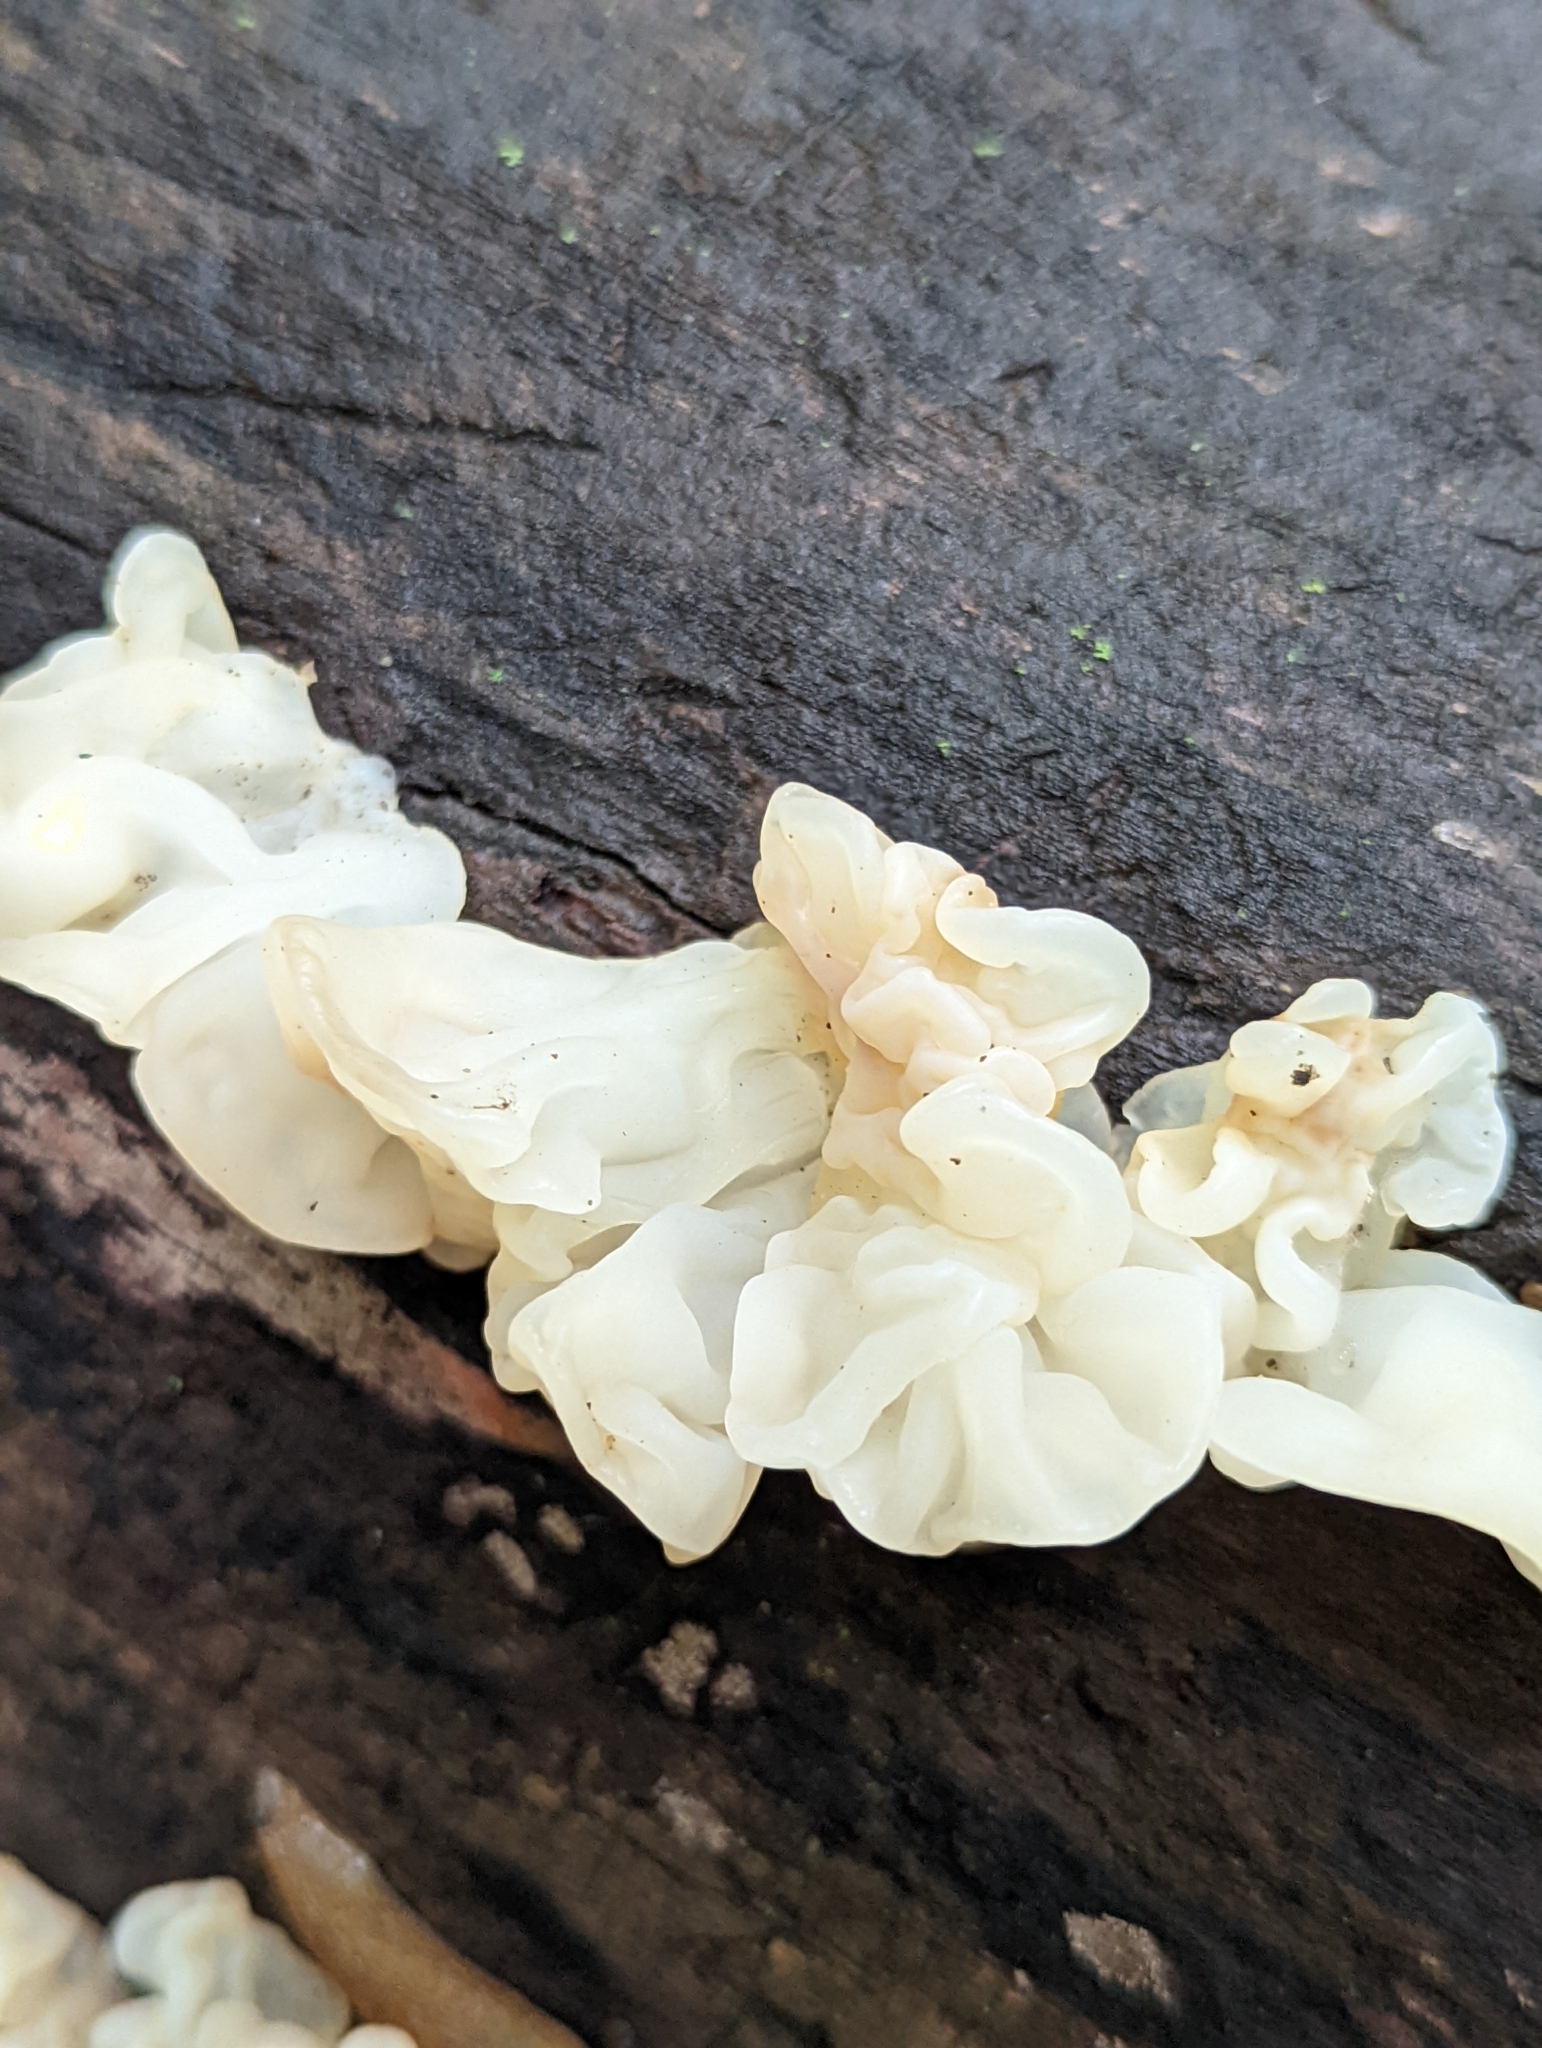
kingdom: Fungi
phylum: Basidiomycota
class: Agaricomycetes
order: Auriculariales
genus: Ductifera
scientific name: Ductifera pululahuana
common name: White jelly fungus
